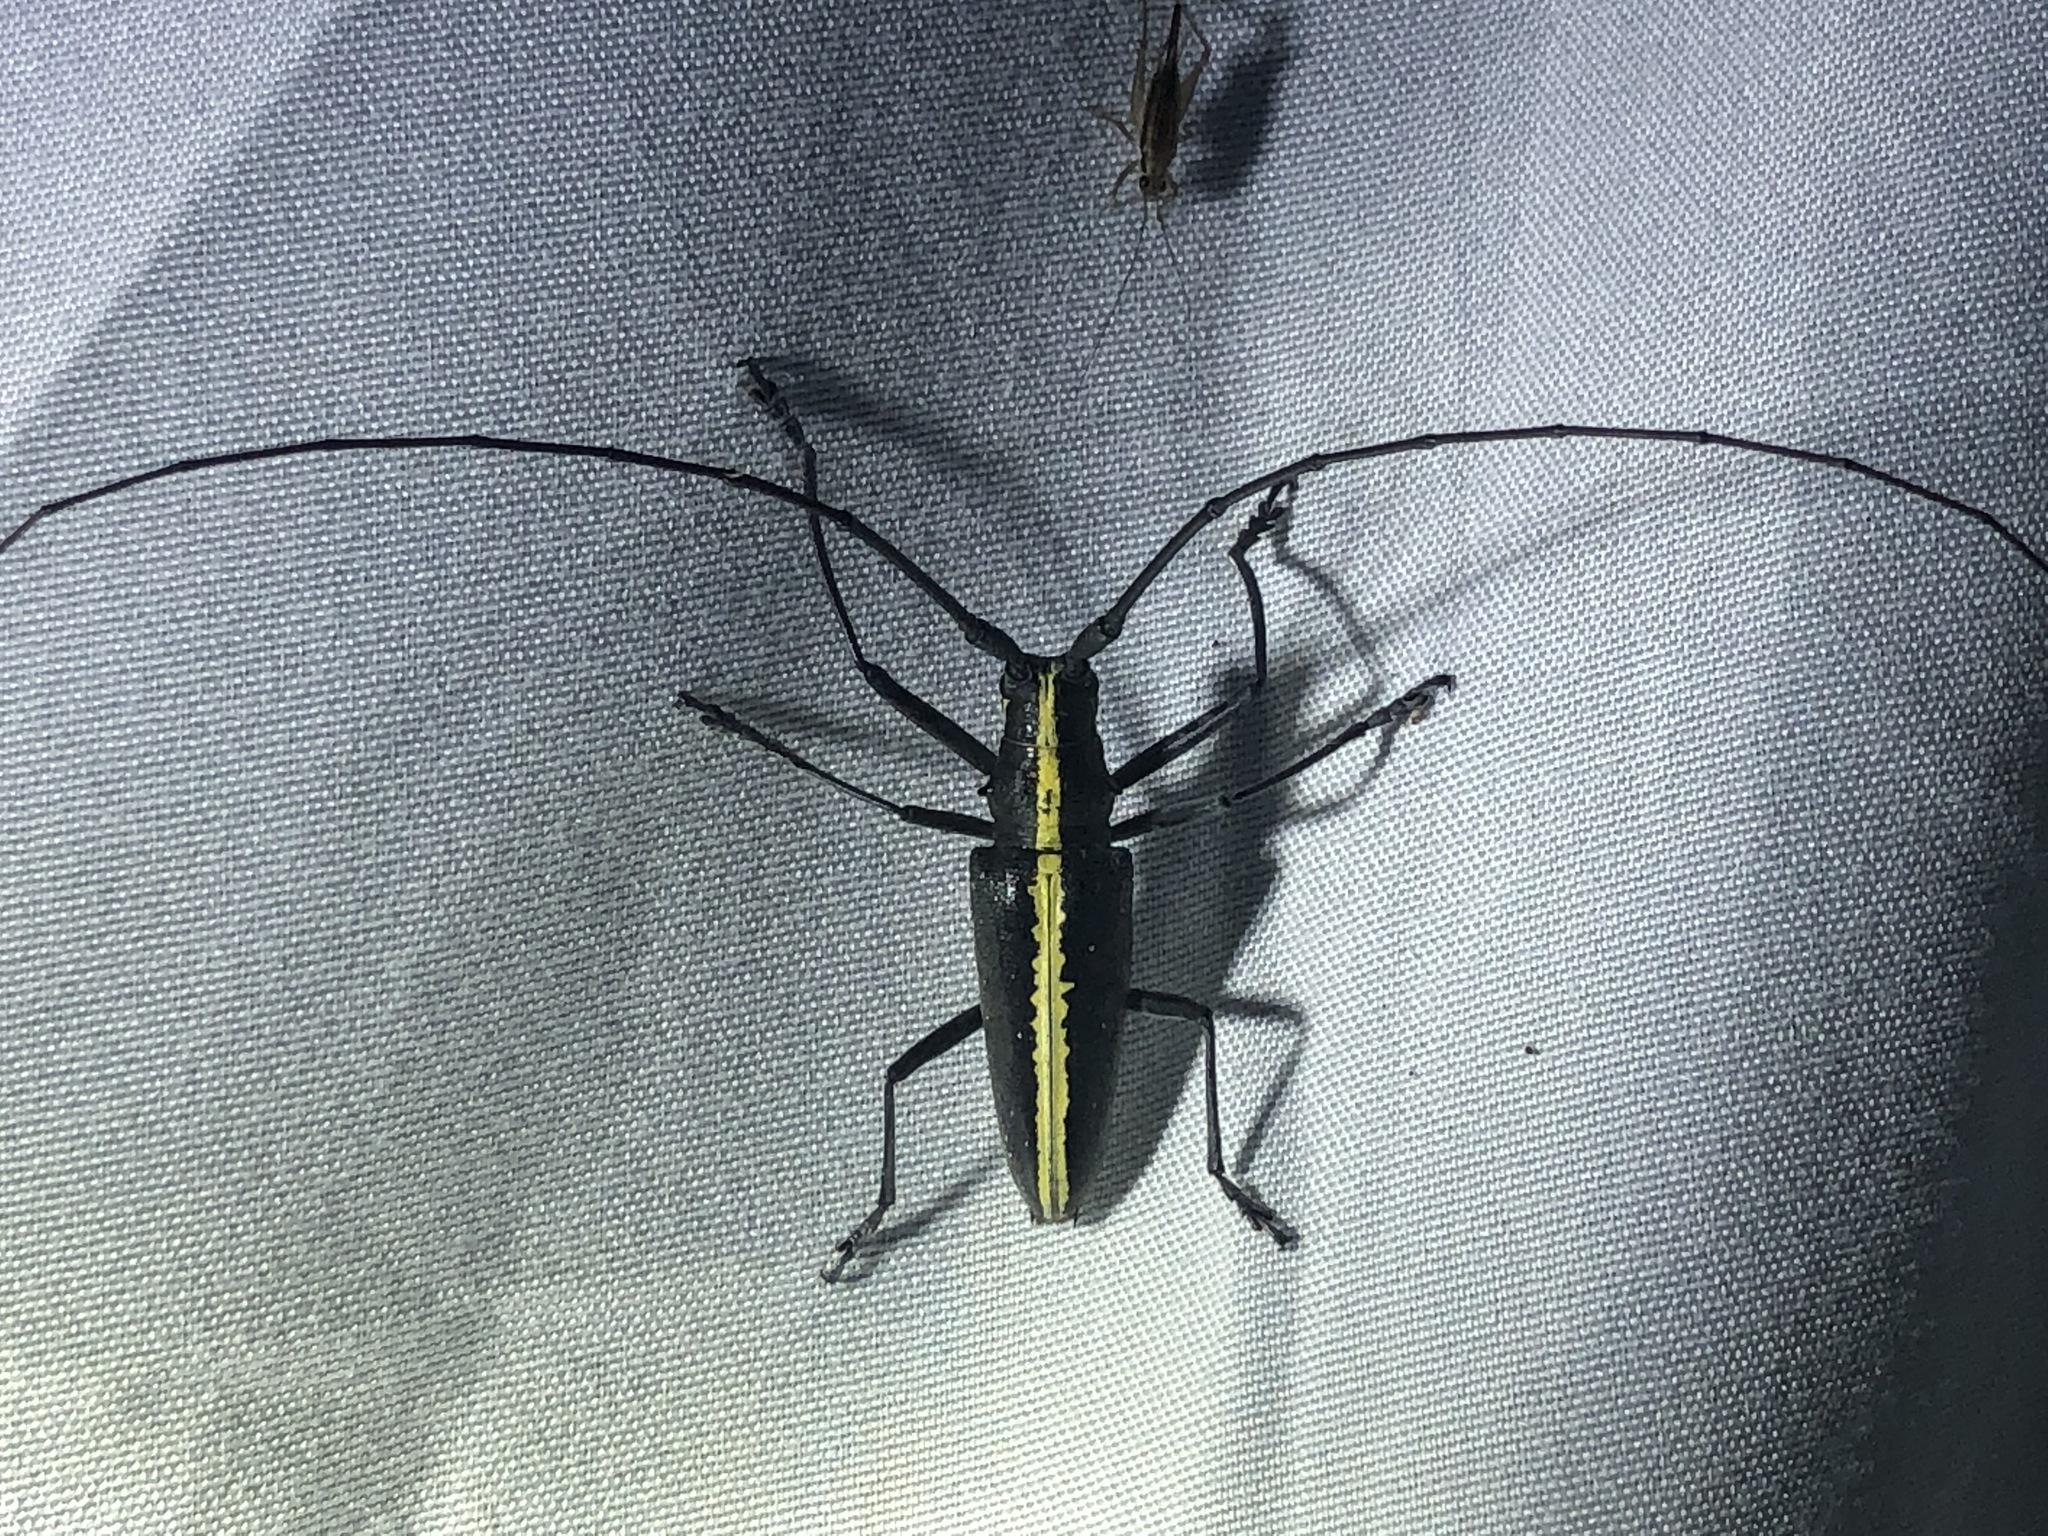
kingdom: Animalia
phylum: Arthropoda
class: Insecta
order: Coleoptera
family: Cerambycidae
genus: Taeniotes
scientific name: Taeniotes scalatus
